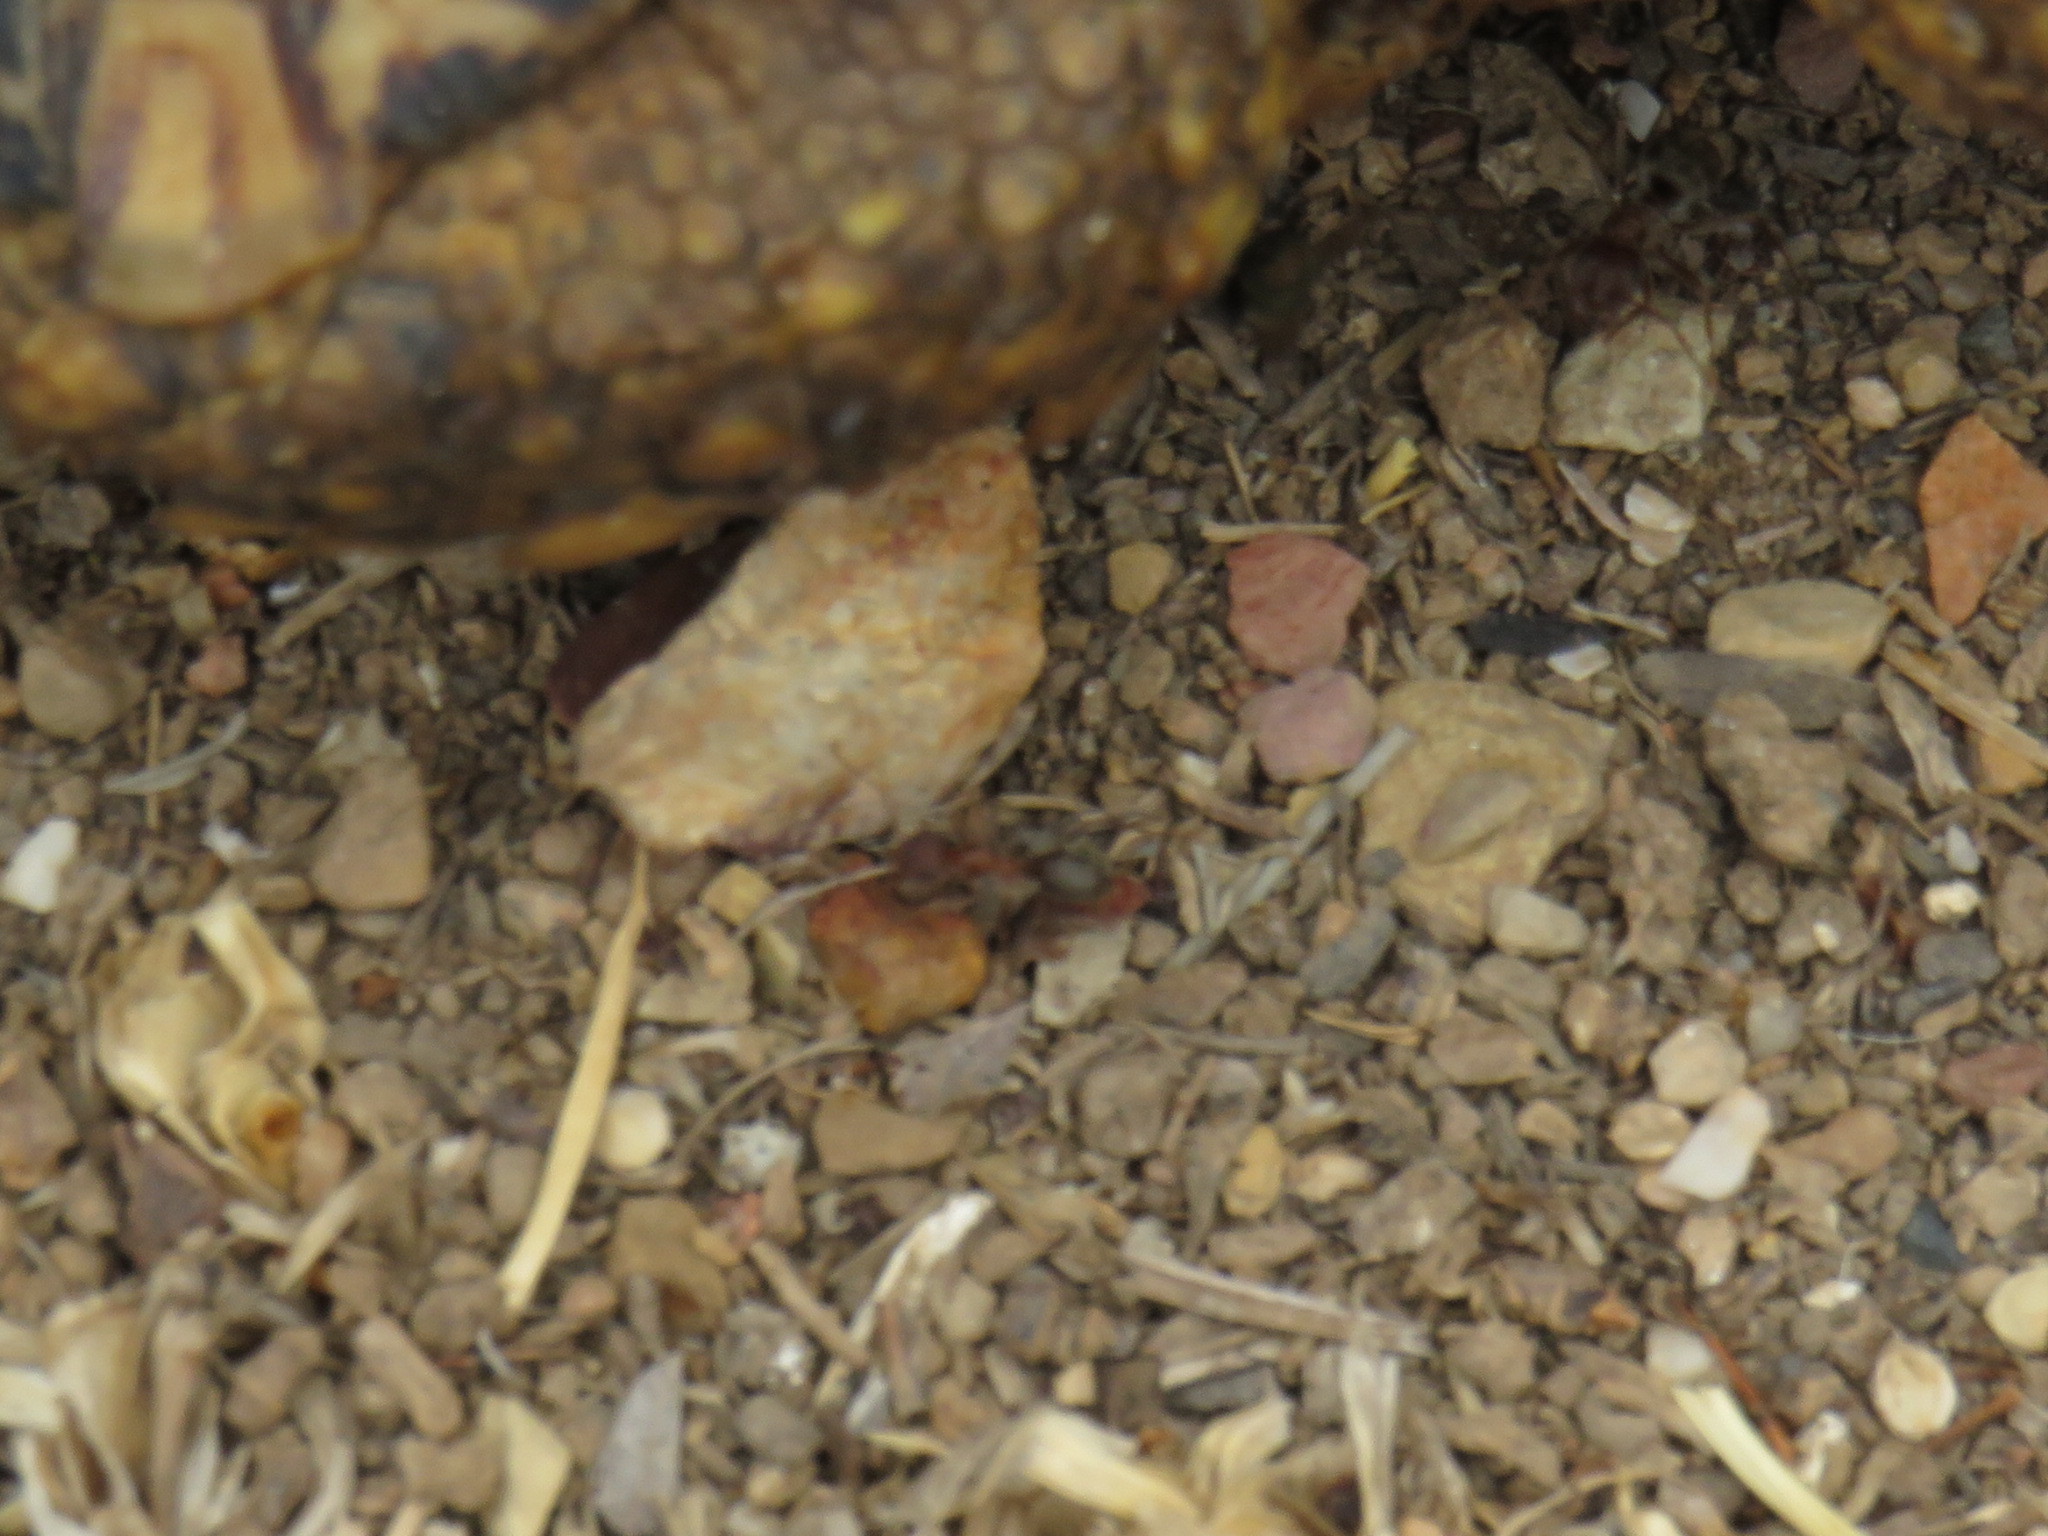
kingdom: Animalia
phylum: Arthropoda
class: Insecta
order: Hymenoptera
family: Formicidae
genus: Anoplolepis
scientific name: Anoplolepis steingroeveri
